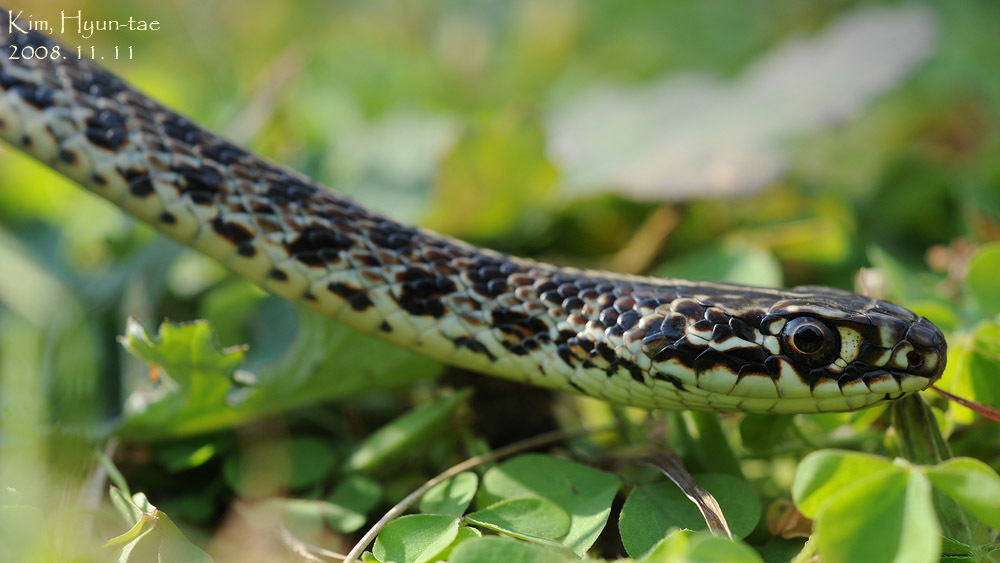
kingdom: Animalia
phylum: Chordata
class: Squamata
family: Colubridae
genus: Orientocoluber
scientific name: Orientocoluber spinalis
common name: Slender racer
